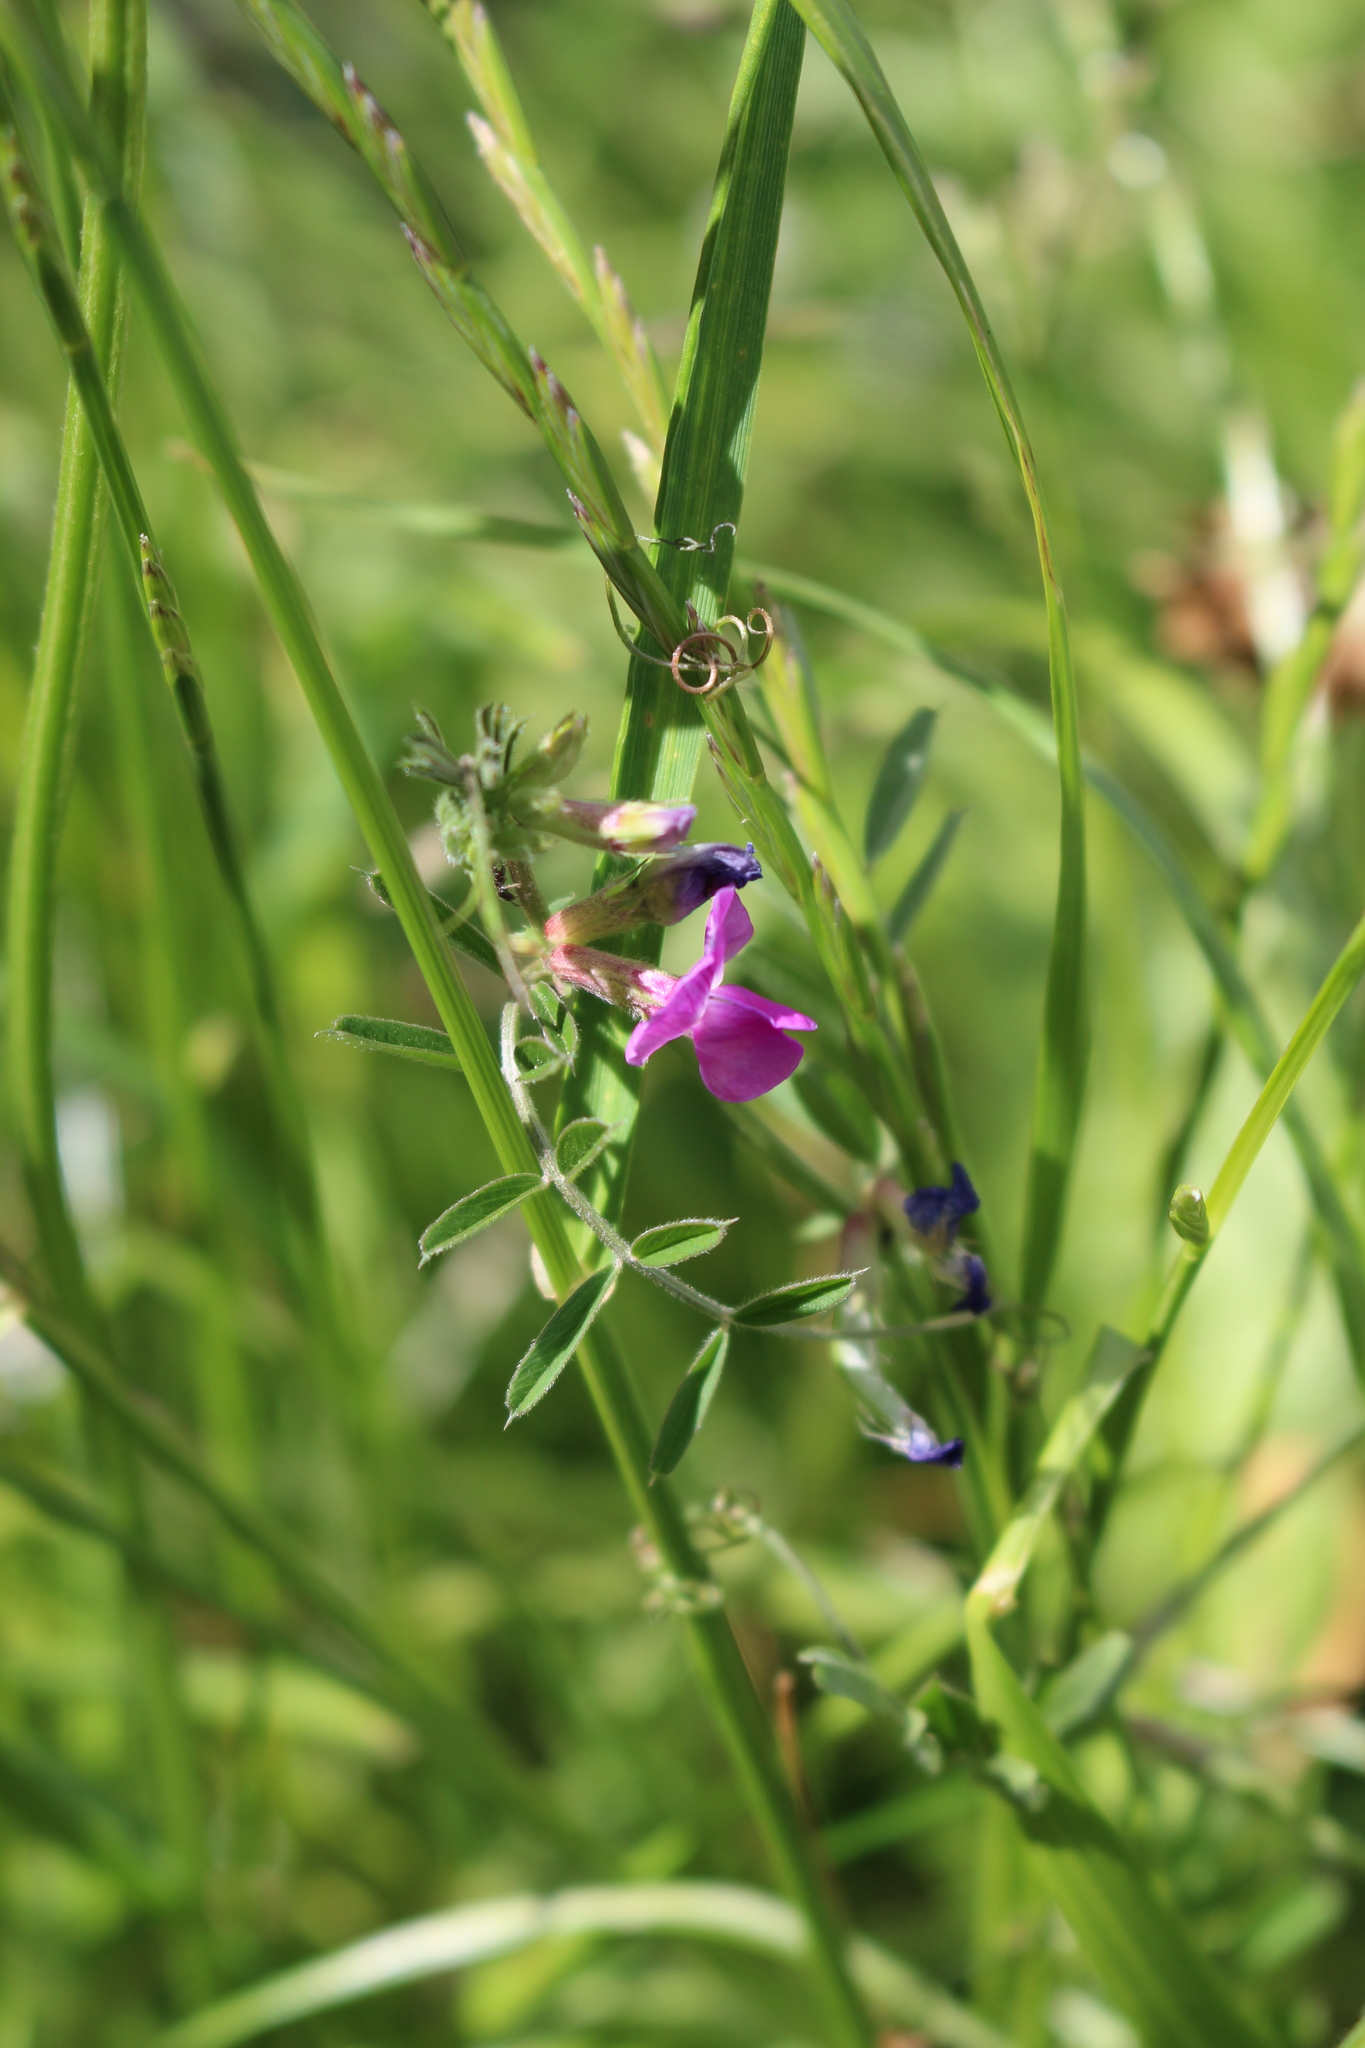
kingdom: Plantae
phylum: Tracheophyta
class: Magnoliopsida
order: Fabales
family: Fabaceae
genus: Vicia
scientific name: Vicia sativa
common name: Garden vetch
